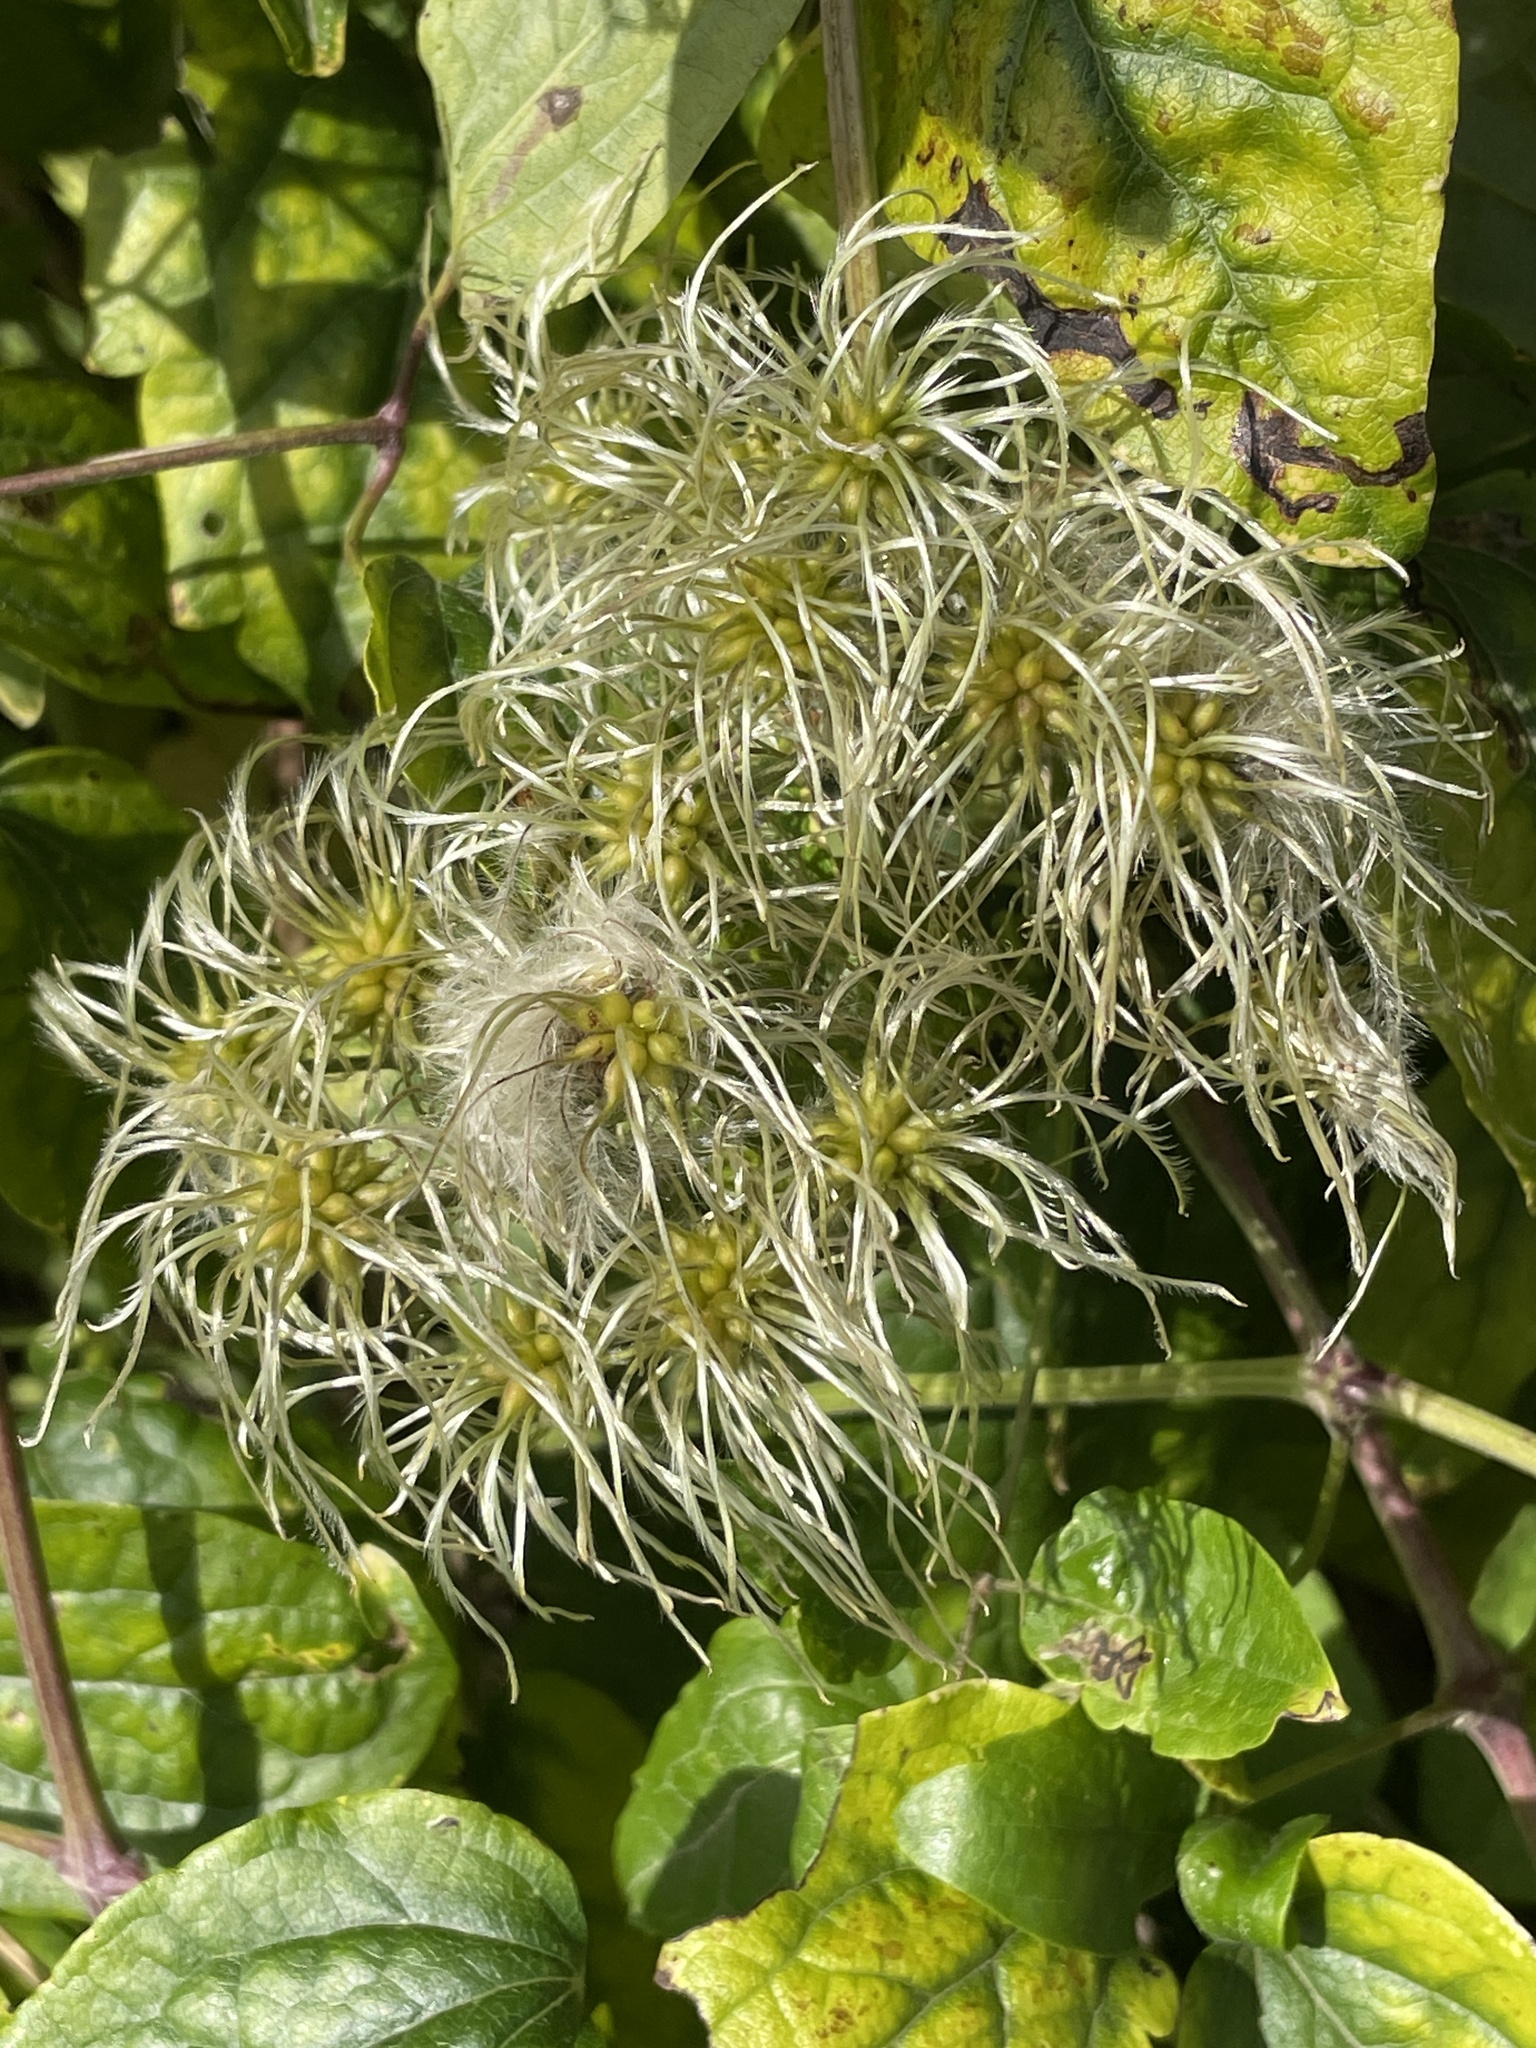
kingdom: Plantae
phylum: Tracheophyta
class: Magnoliopsida
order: Ranunculales
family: Ranunculaceae
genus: Clematis
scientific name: Clematis vitalba
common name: Evergreen clematis
